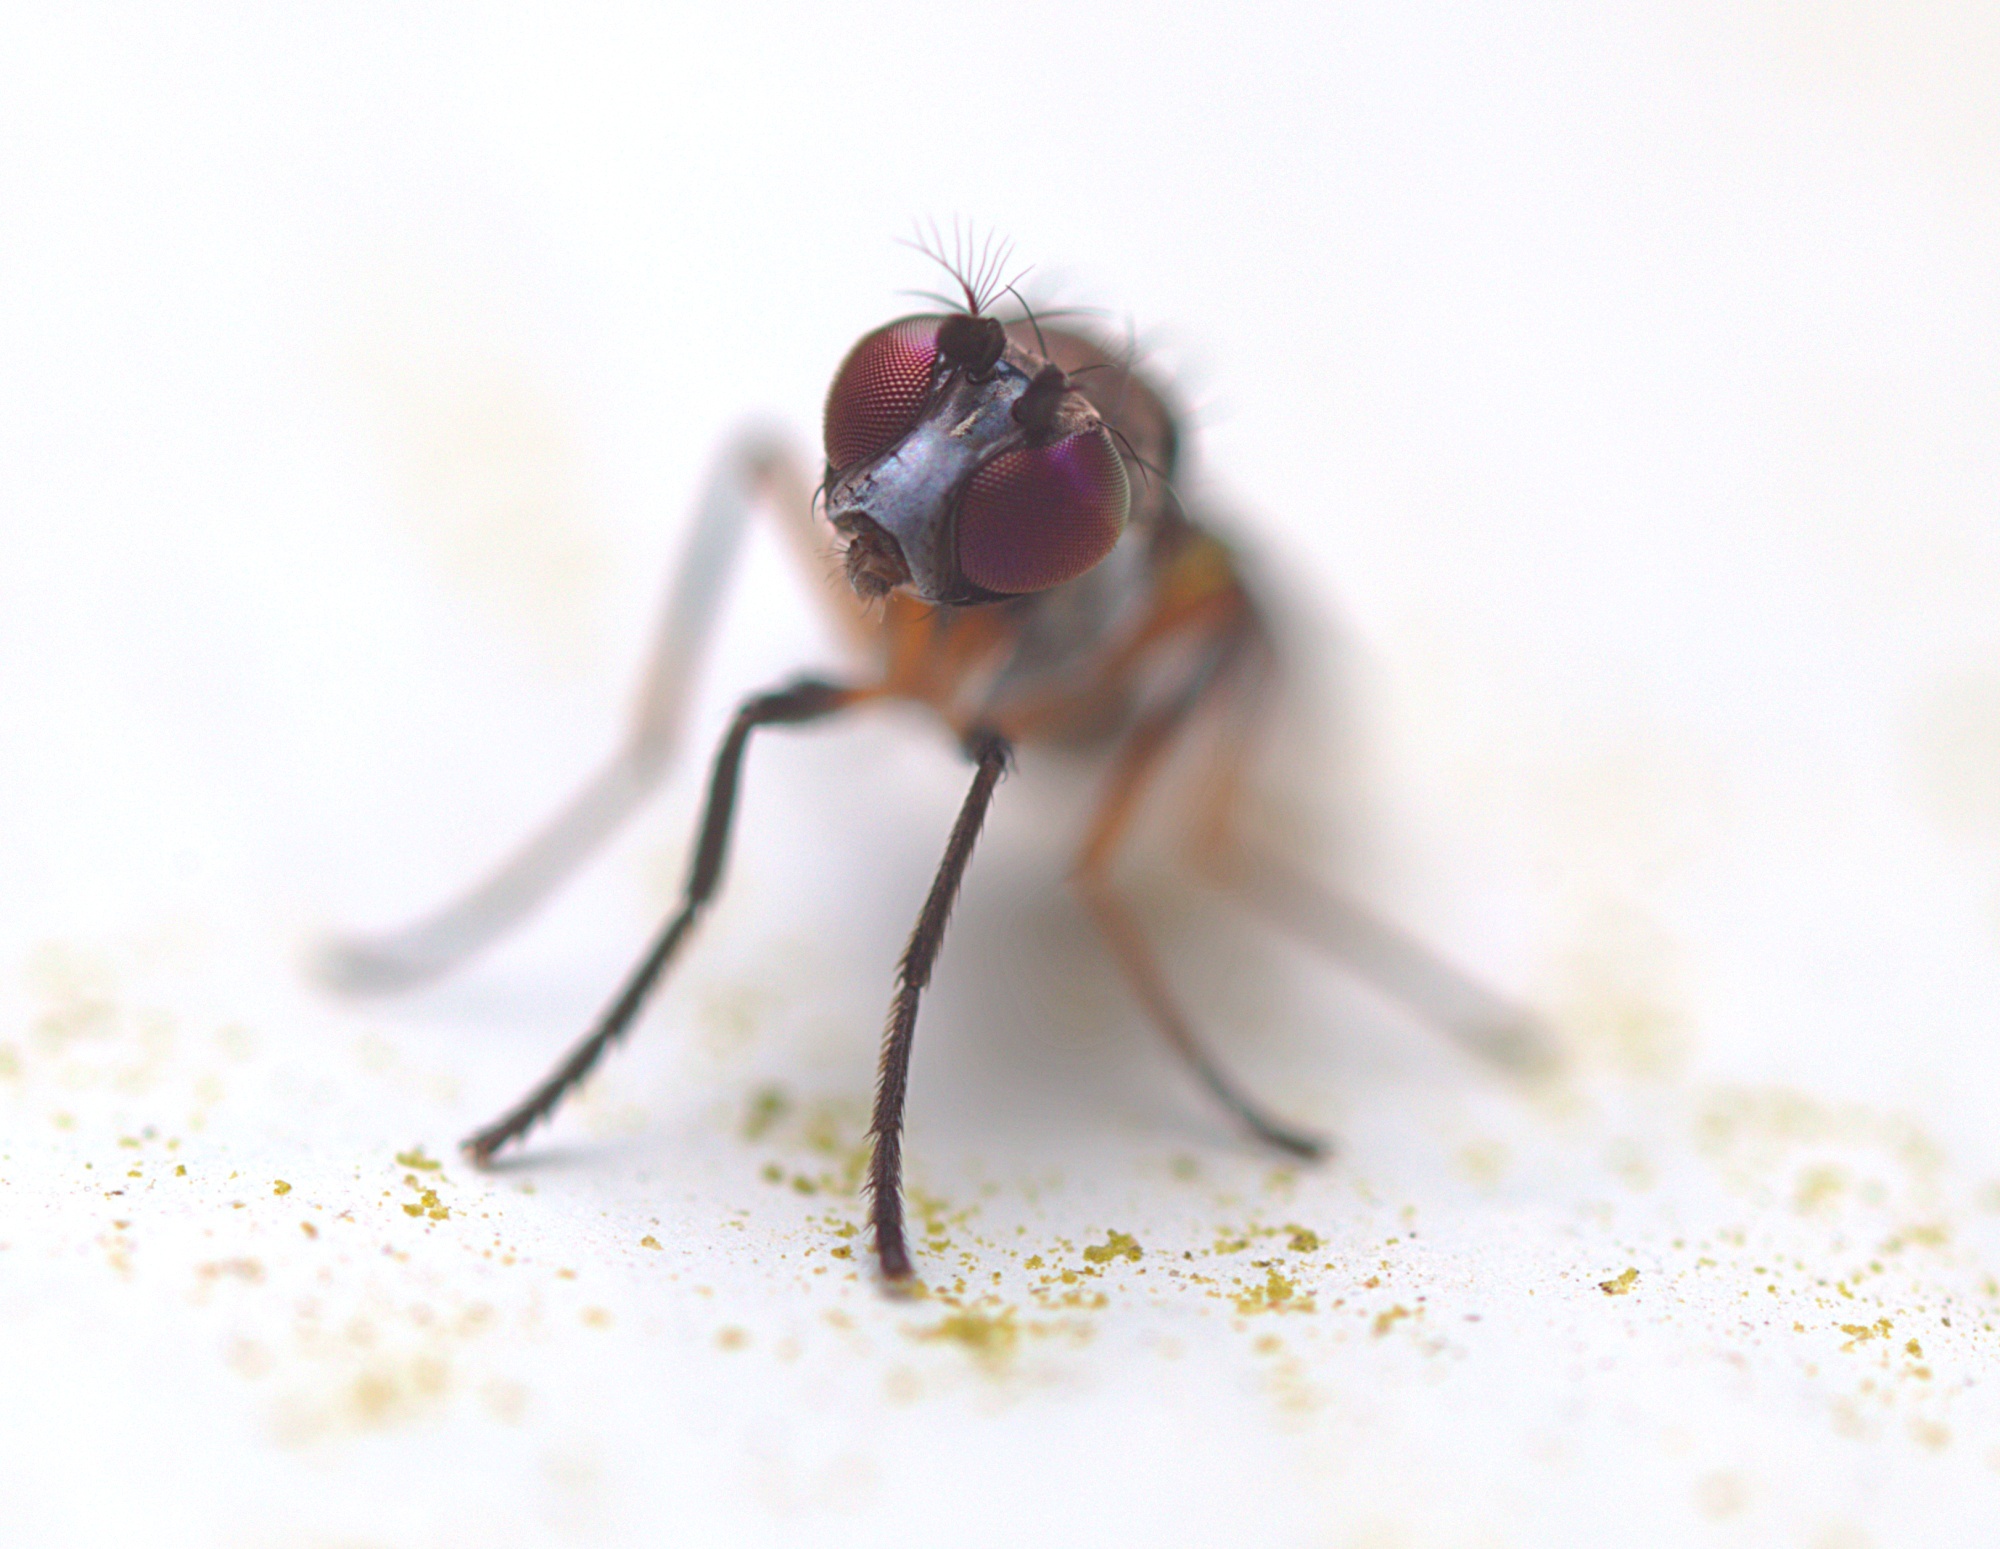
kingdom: Animalia
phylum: Arthropoda
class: Insecta
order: Diptera
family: Ephydridae
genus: Hydrellia
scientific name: Hydrellia tritici
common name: Shore fly
